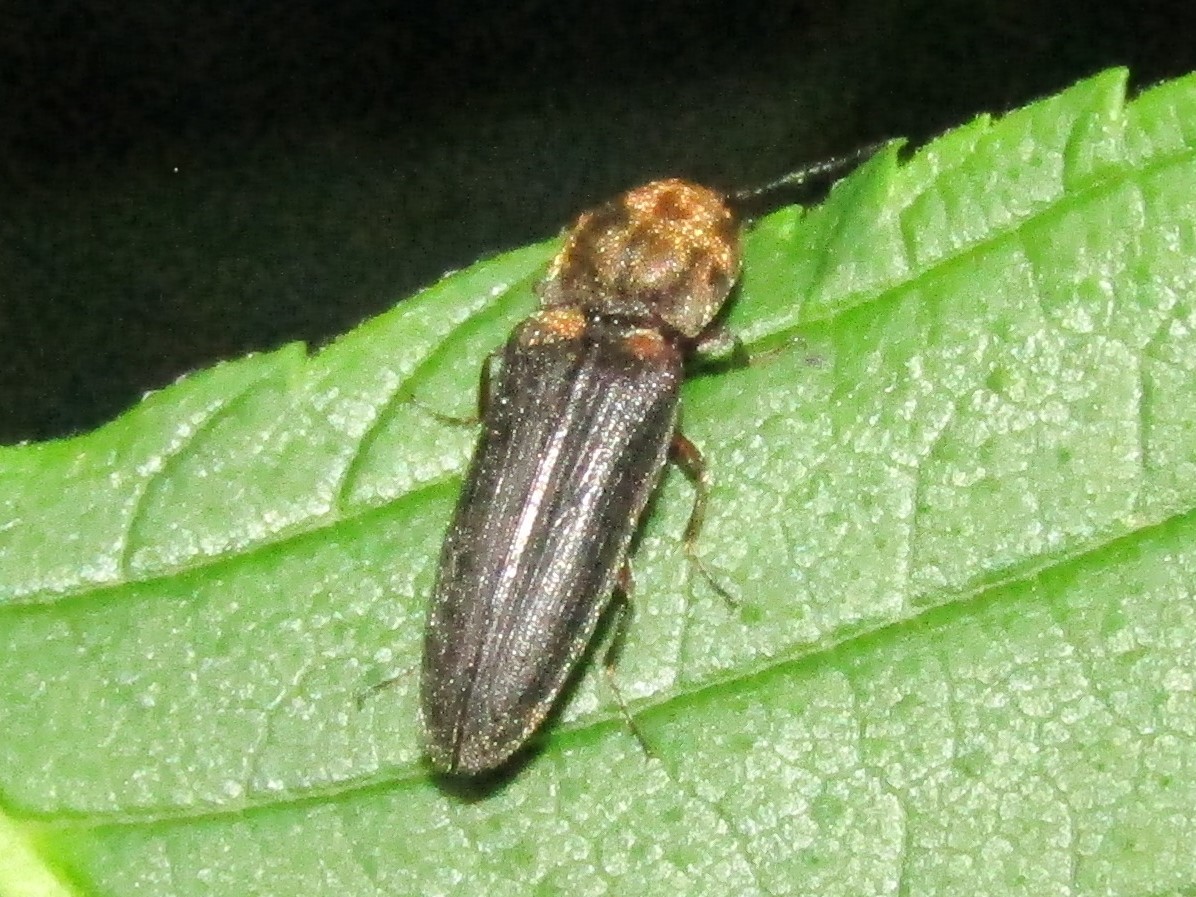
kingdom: Animalia
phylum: Arthropoda
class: Insecta
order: Coleoptera
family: Elateridae
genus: Limonius
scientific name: Limonius auripilis
